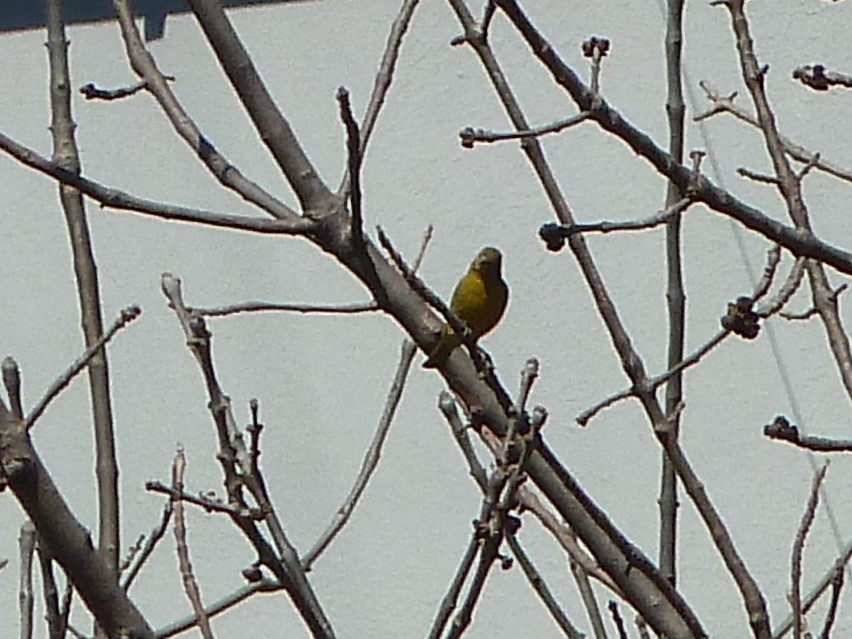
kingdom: Animalia
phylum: Chordata
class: Aves
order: Passeriformes
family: Fringillidae
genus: Spinus
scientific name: Spinus magellanicus
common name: Hooded siskin
